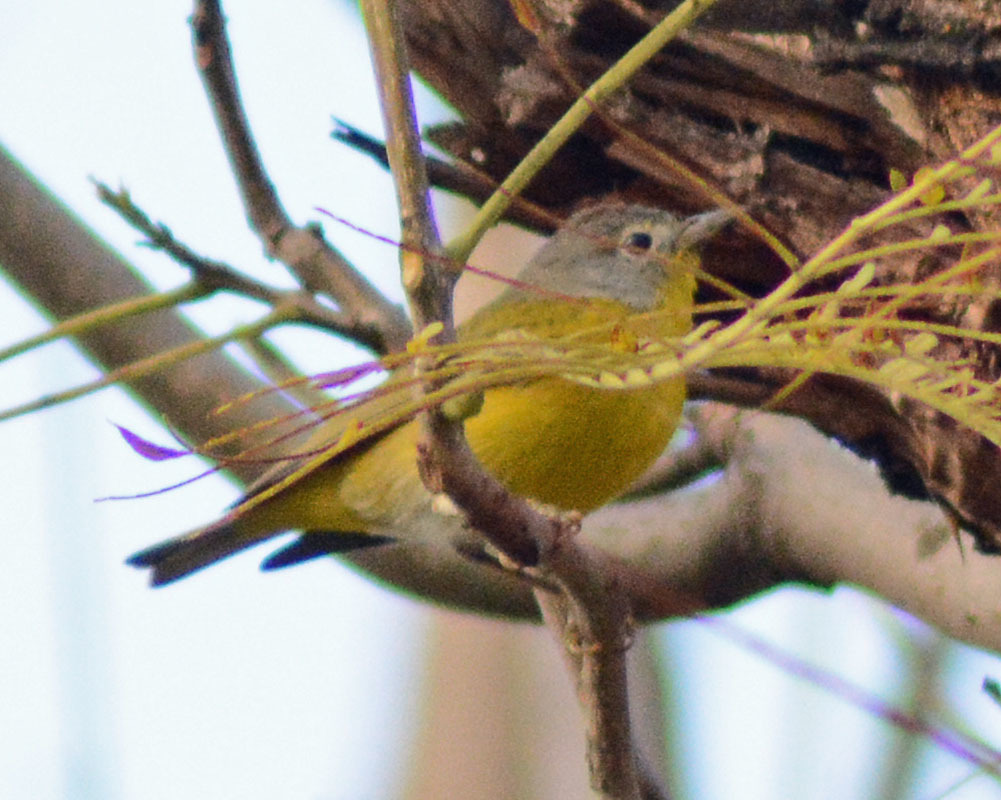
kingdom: Animalia
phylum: Chordata
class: Aves
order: Passeriformes
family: Parulidae
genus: Leiothlypis
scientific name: Leiothlypis ruficapilla
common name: Nashville warbler
